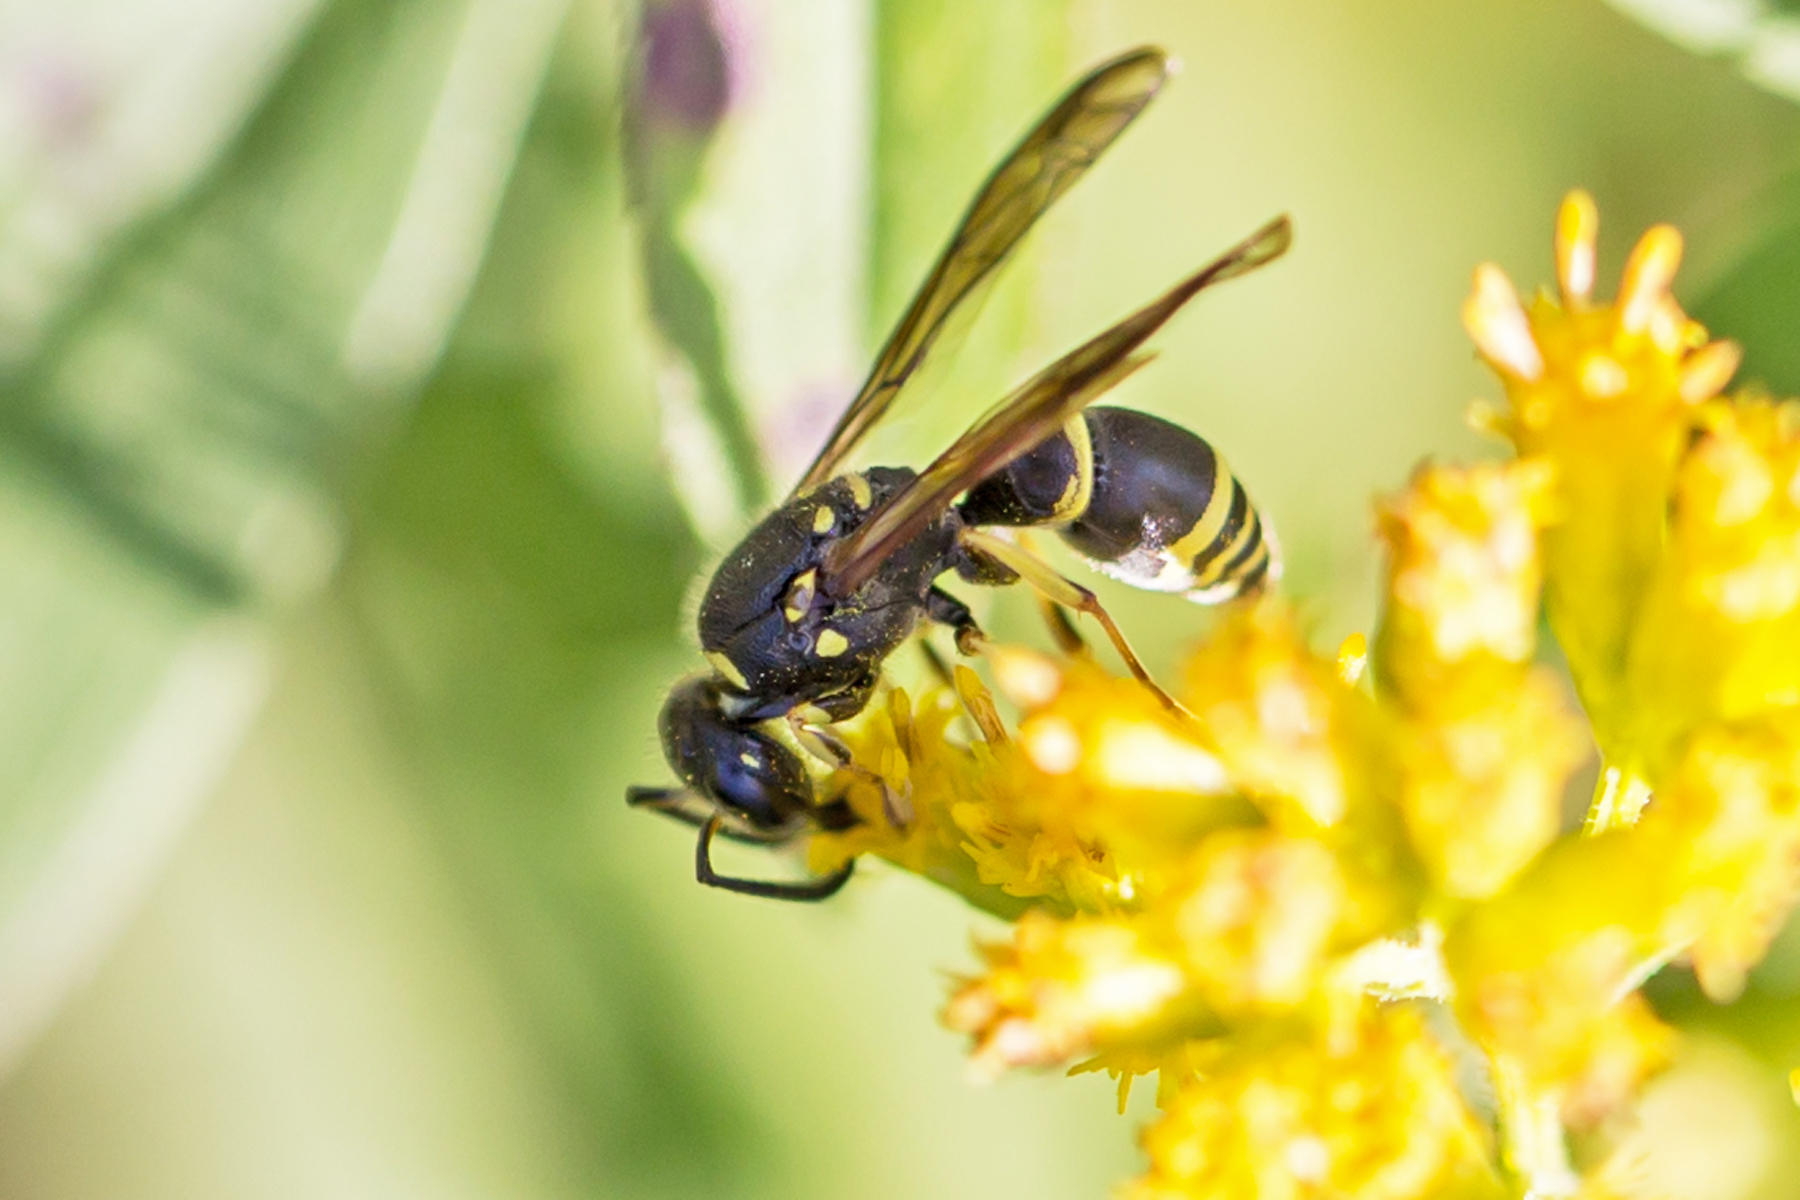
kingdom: Animalia
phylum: Arthropoda
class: Insecta
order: Hymenoptera
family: Vespidae
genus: Ancistrocerus
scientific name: Ancistrocerus adiabatus
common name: Bramble mason wasp
